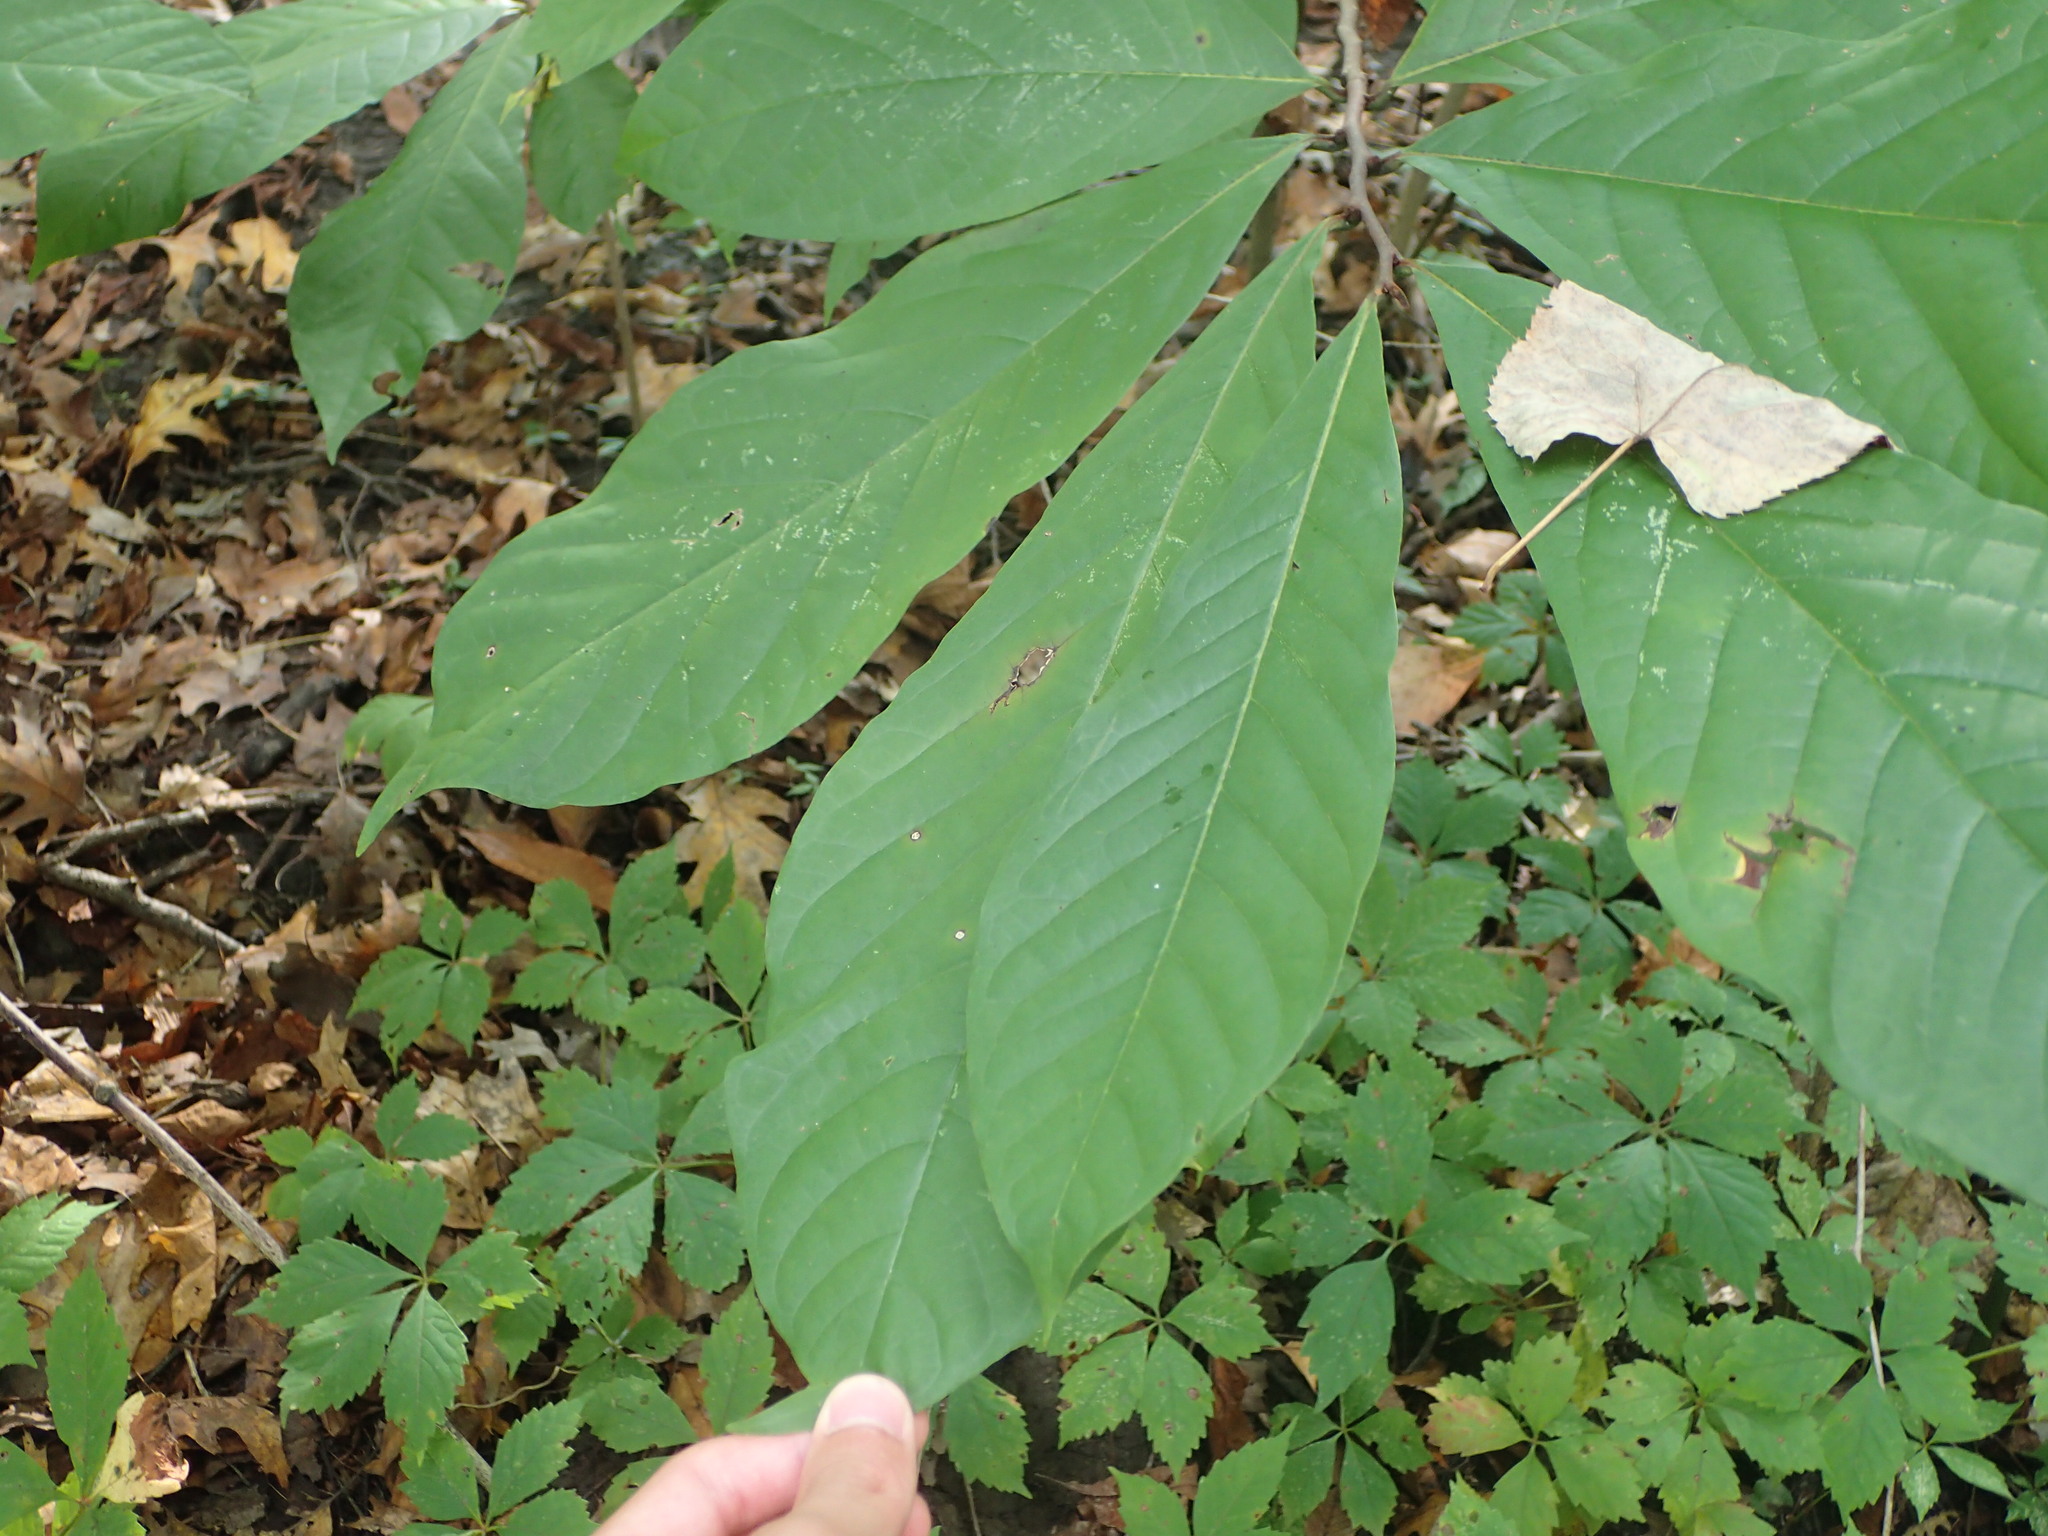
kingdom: Plantae
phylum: Tracheophyta
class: Magnoliopsida
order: Magnoliales
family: Annonaceae
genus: Asimina
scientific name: Asimina triloba
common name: Dog-banana
